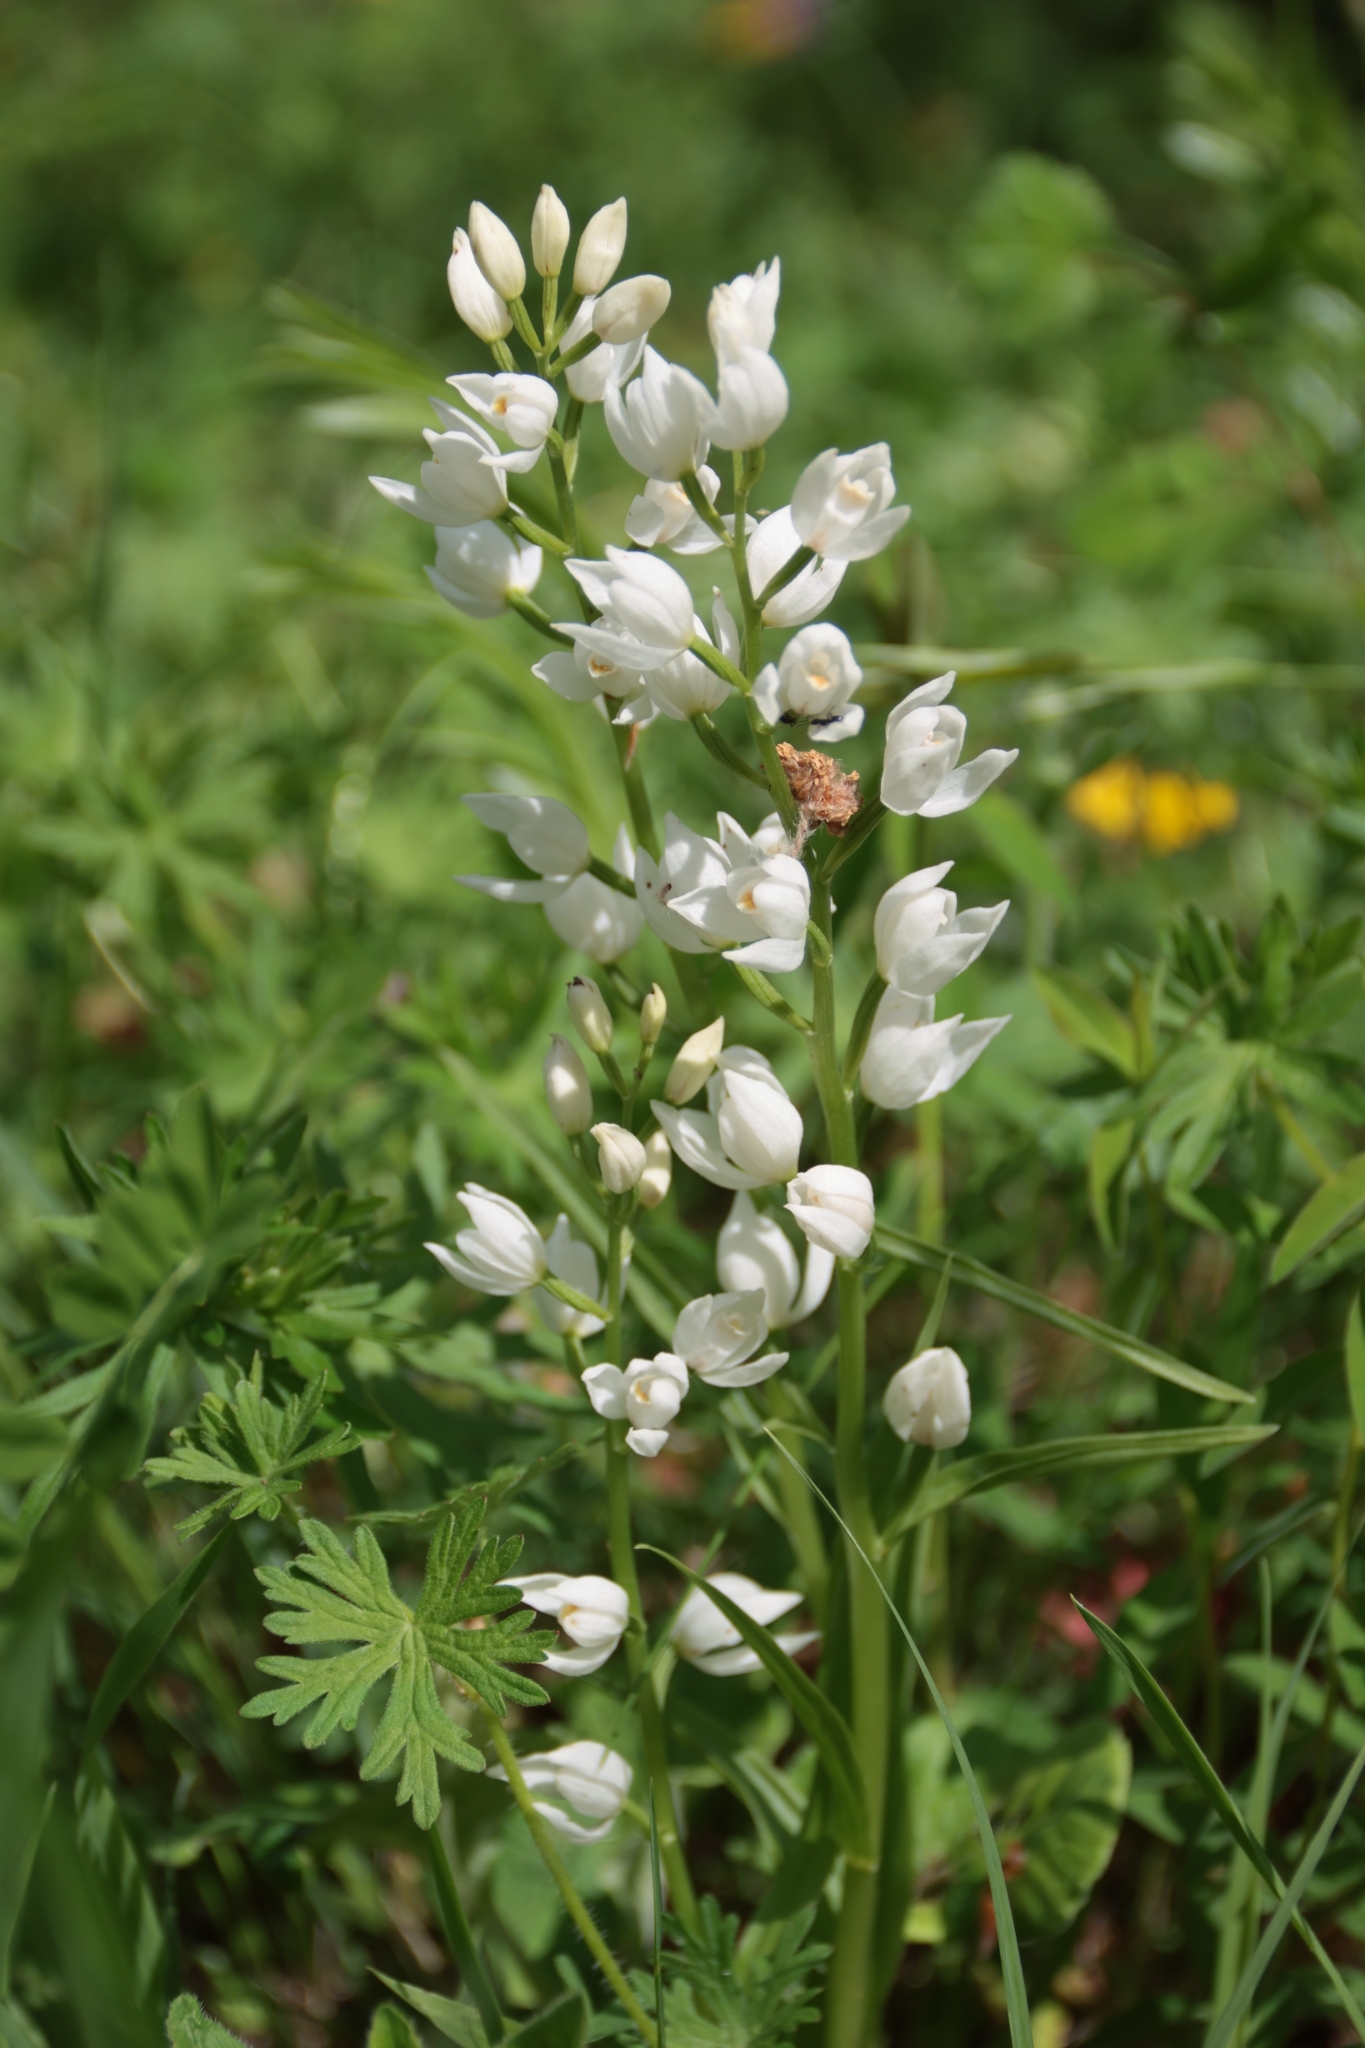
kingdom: Plantae
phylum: Tracheophyta
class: Liliopsida
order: Asparagales
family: Orchidaceae
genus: Cephalanthera
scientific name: Cephalanthera longifolia
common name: Narrow-leaved helleborine
